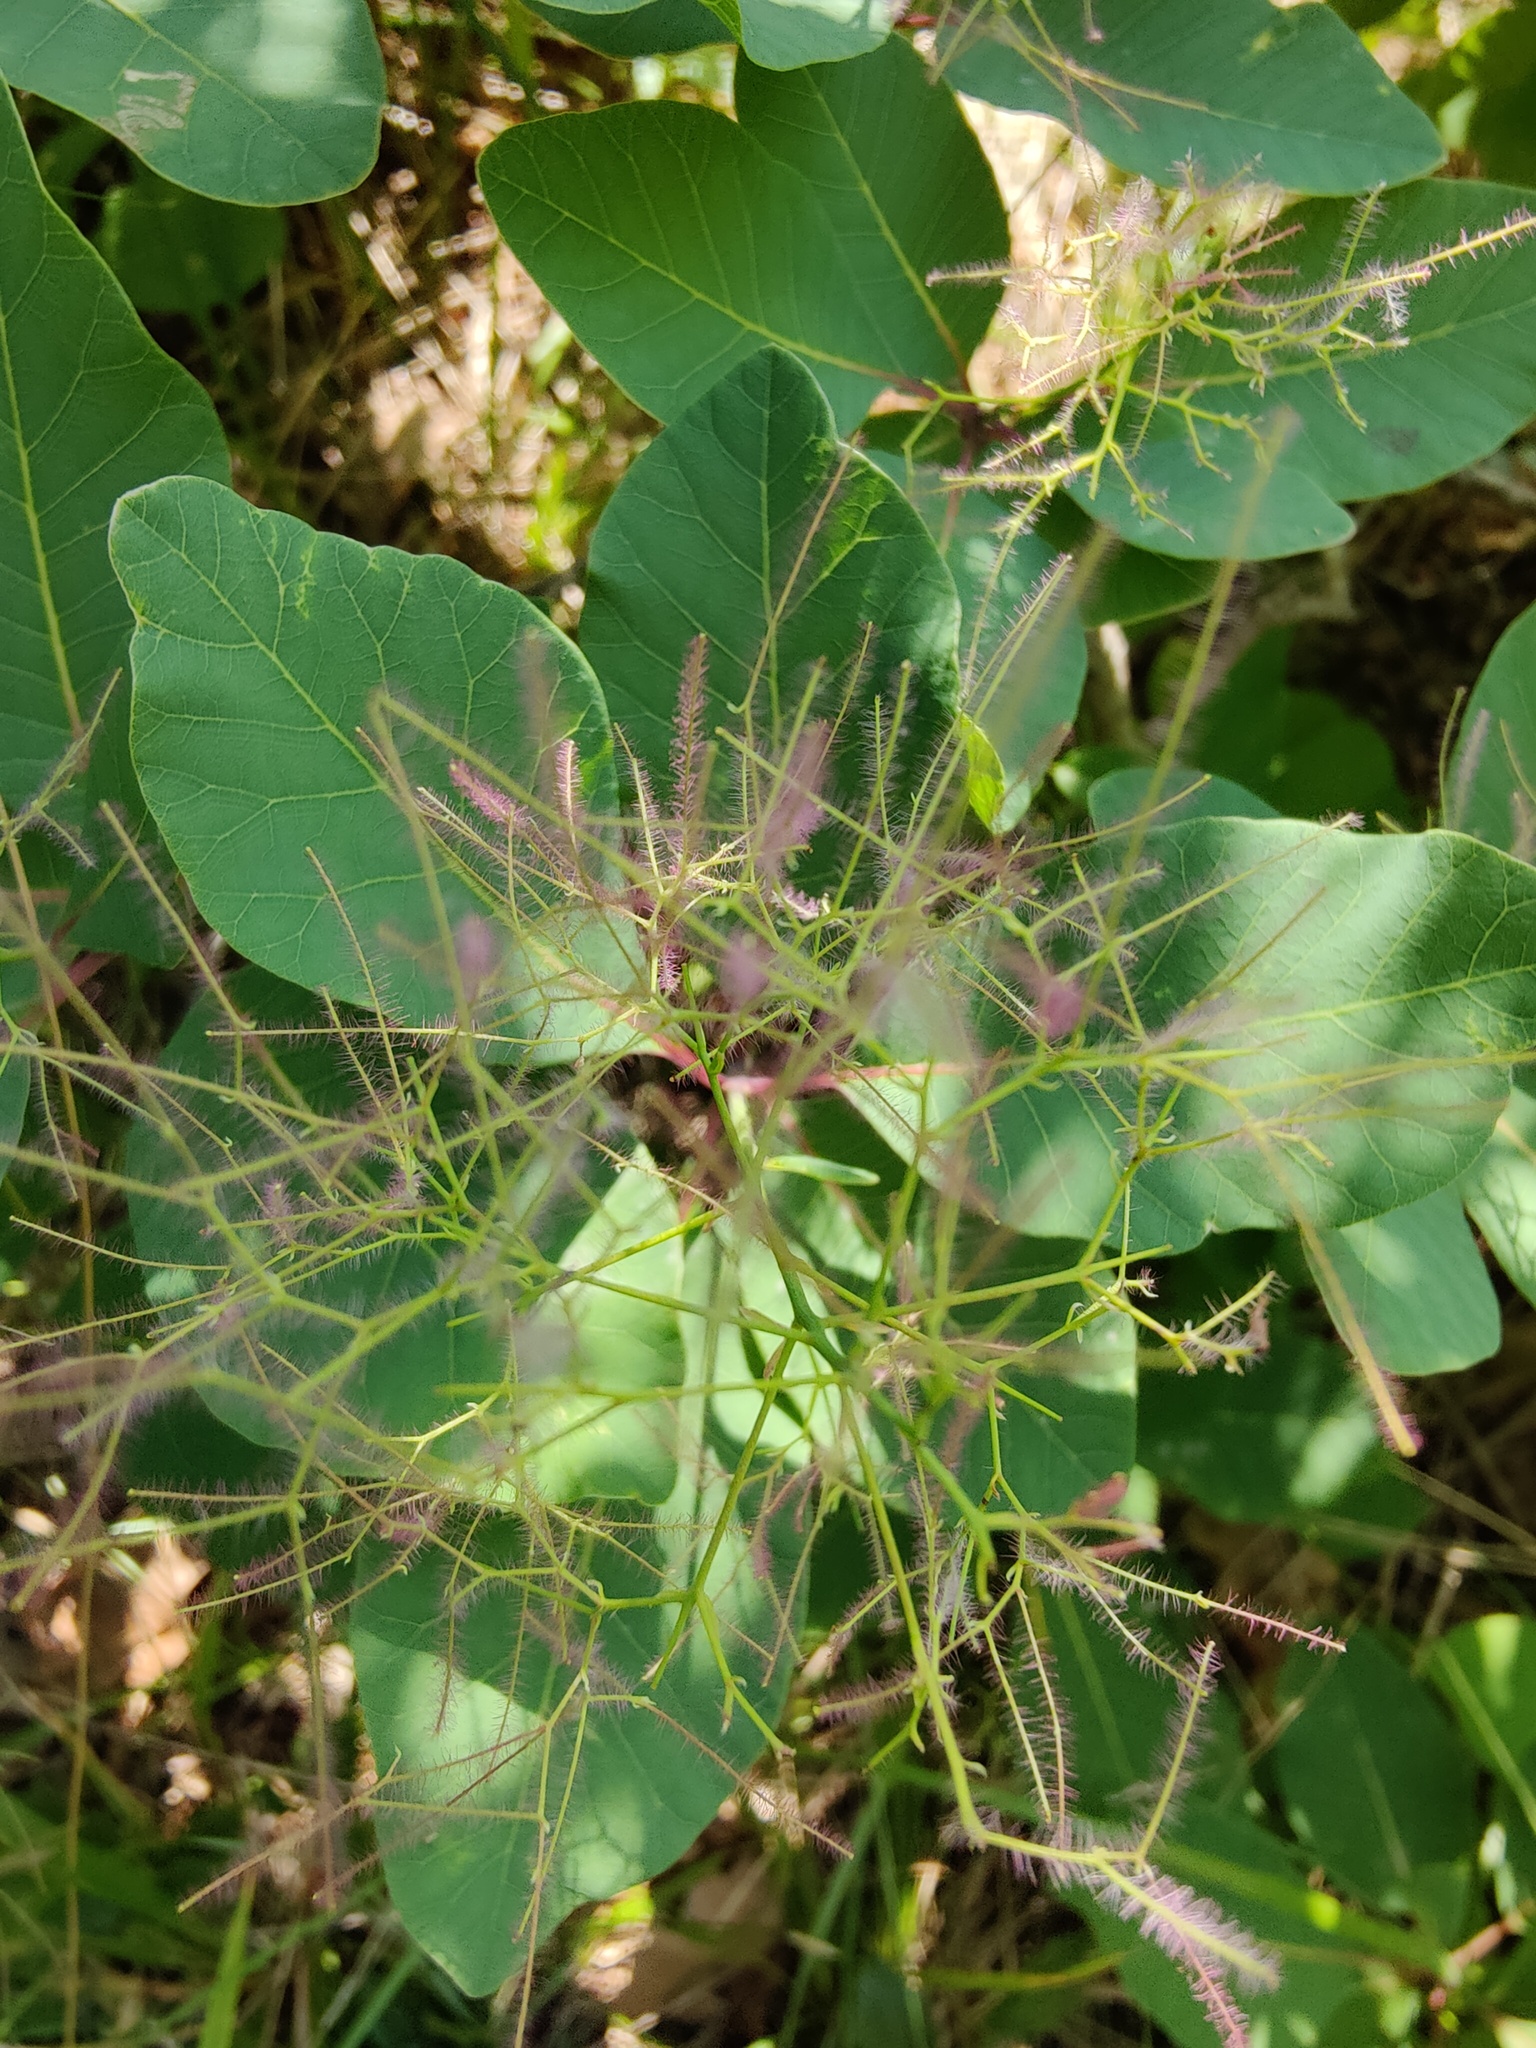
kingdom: Plantae
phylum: Tracheophyta
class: Magnoliopsida
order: Sapindales
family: Anacardiaceae
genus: Cotinus
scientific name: Cotinus coggygria
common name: Smoke-tree
